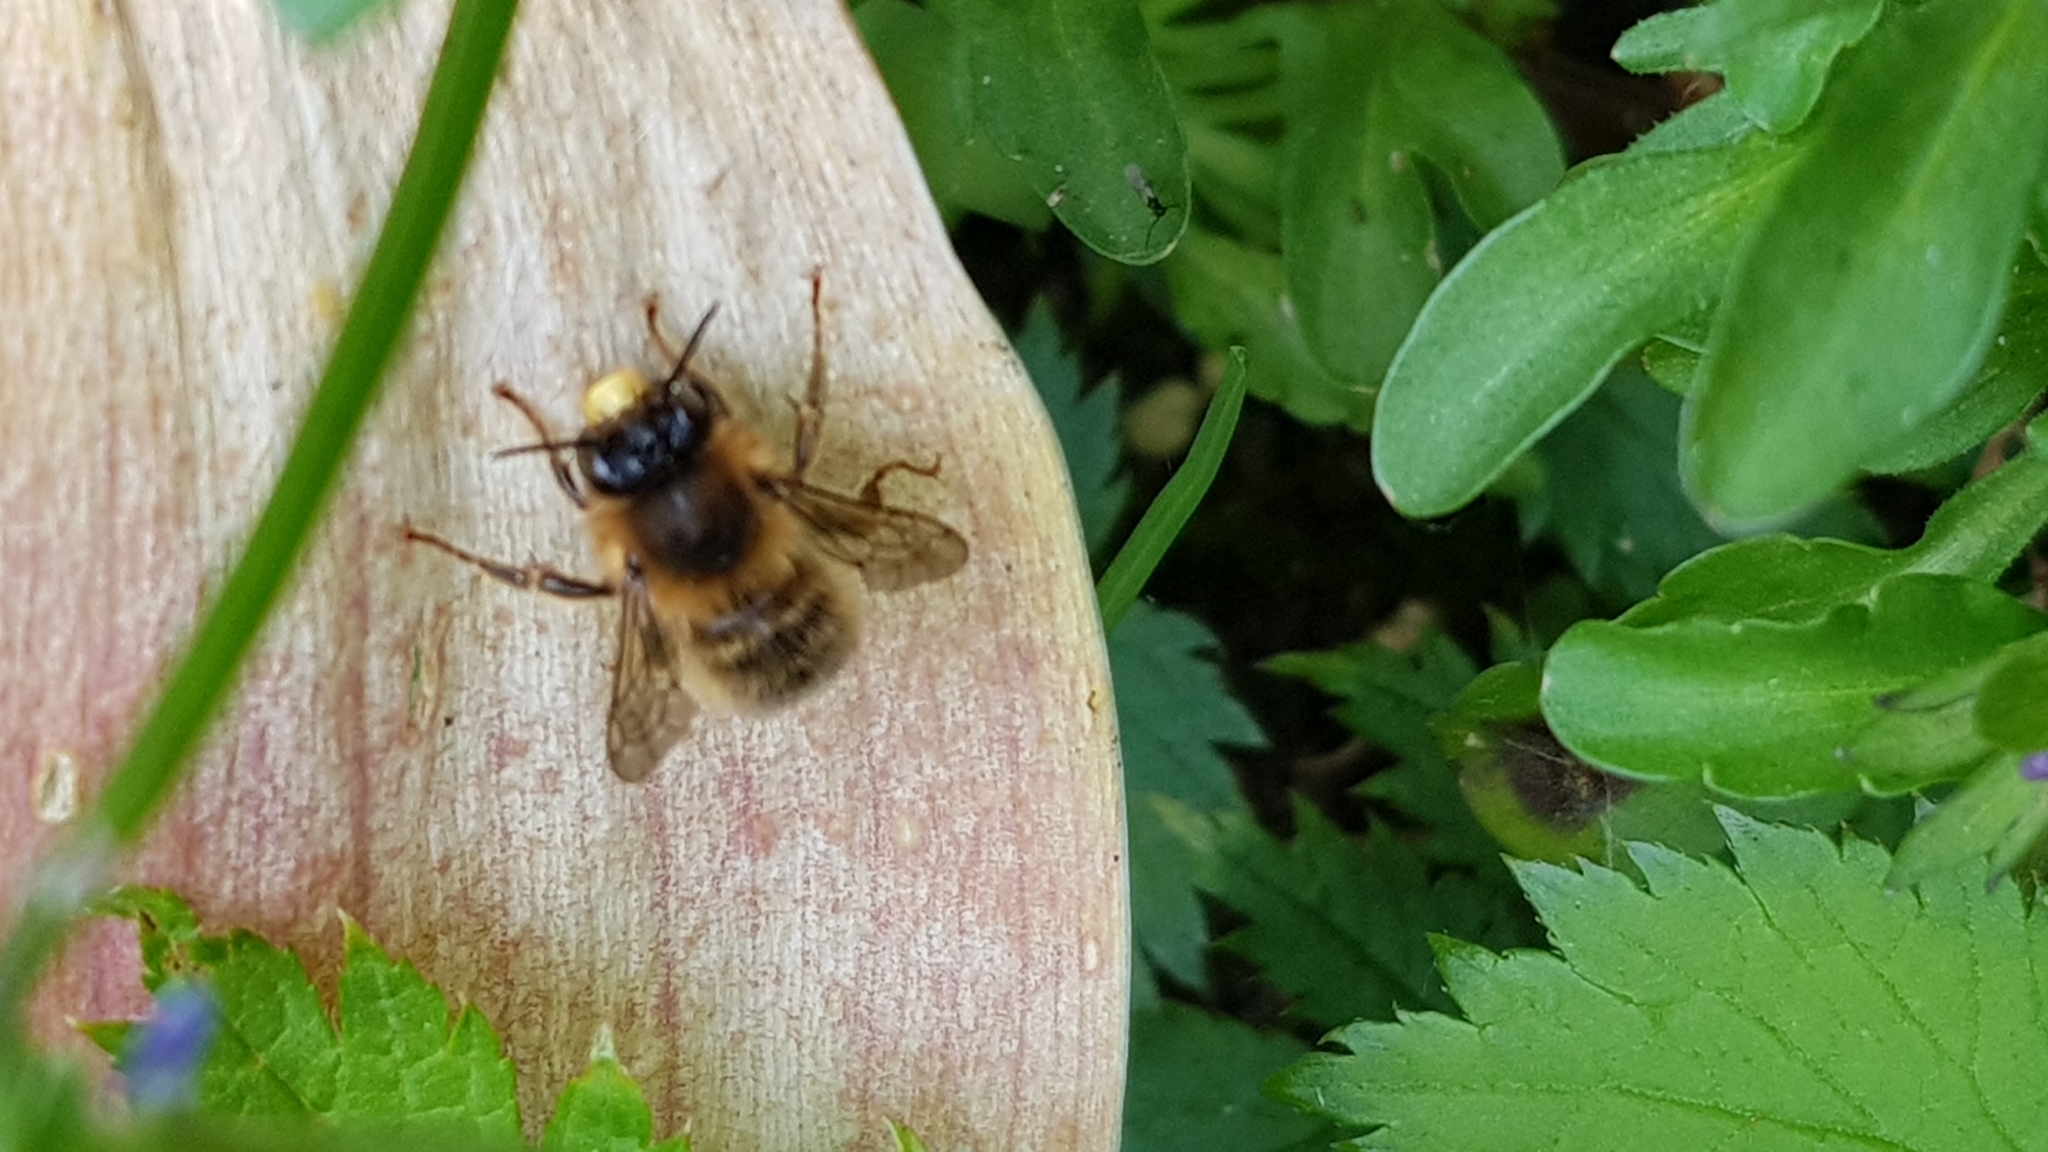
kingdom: Animalia
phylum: Arthropoda
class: Insecta
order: Hymenoptera
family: Apidae
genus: Anthophora
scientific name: Anthophora furcata
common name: Fork-tailed flower bee
